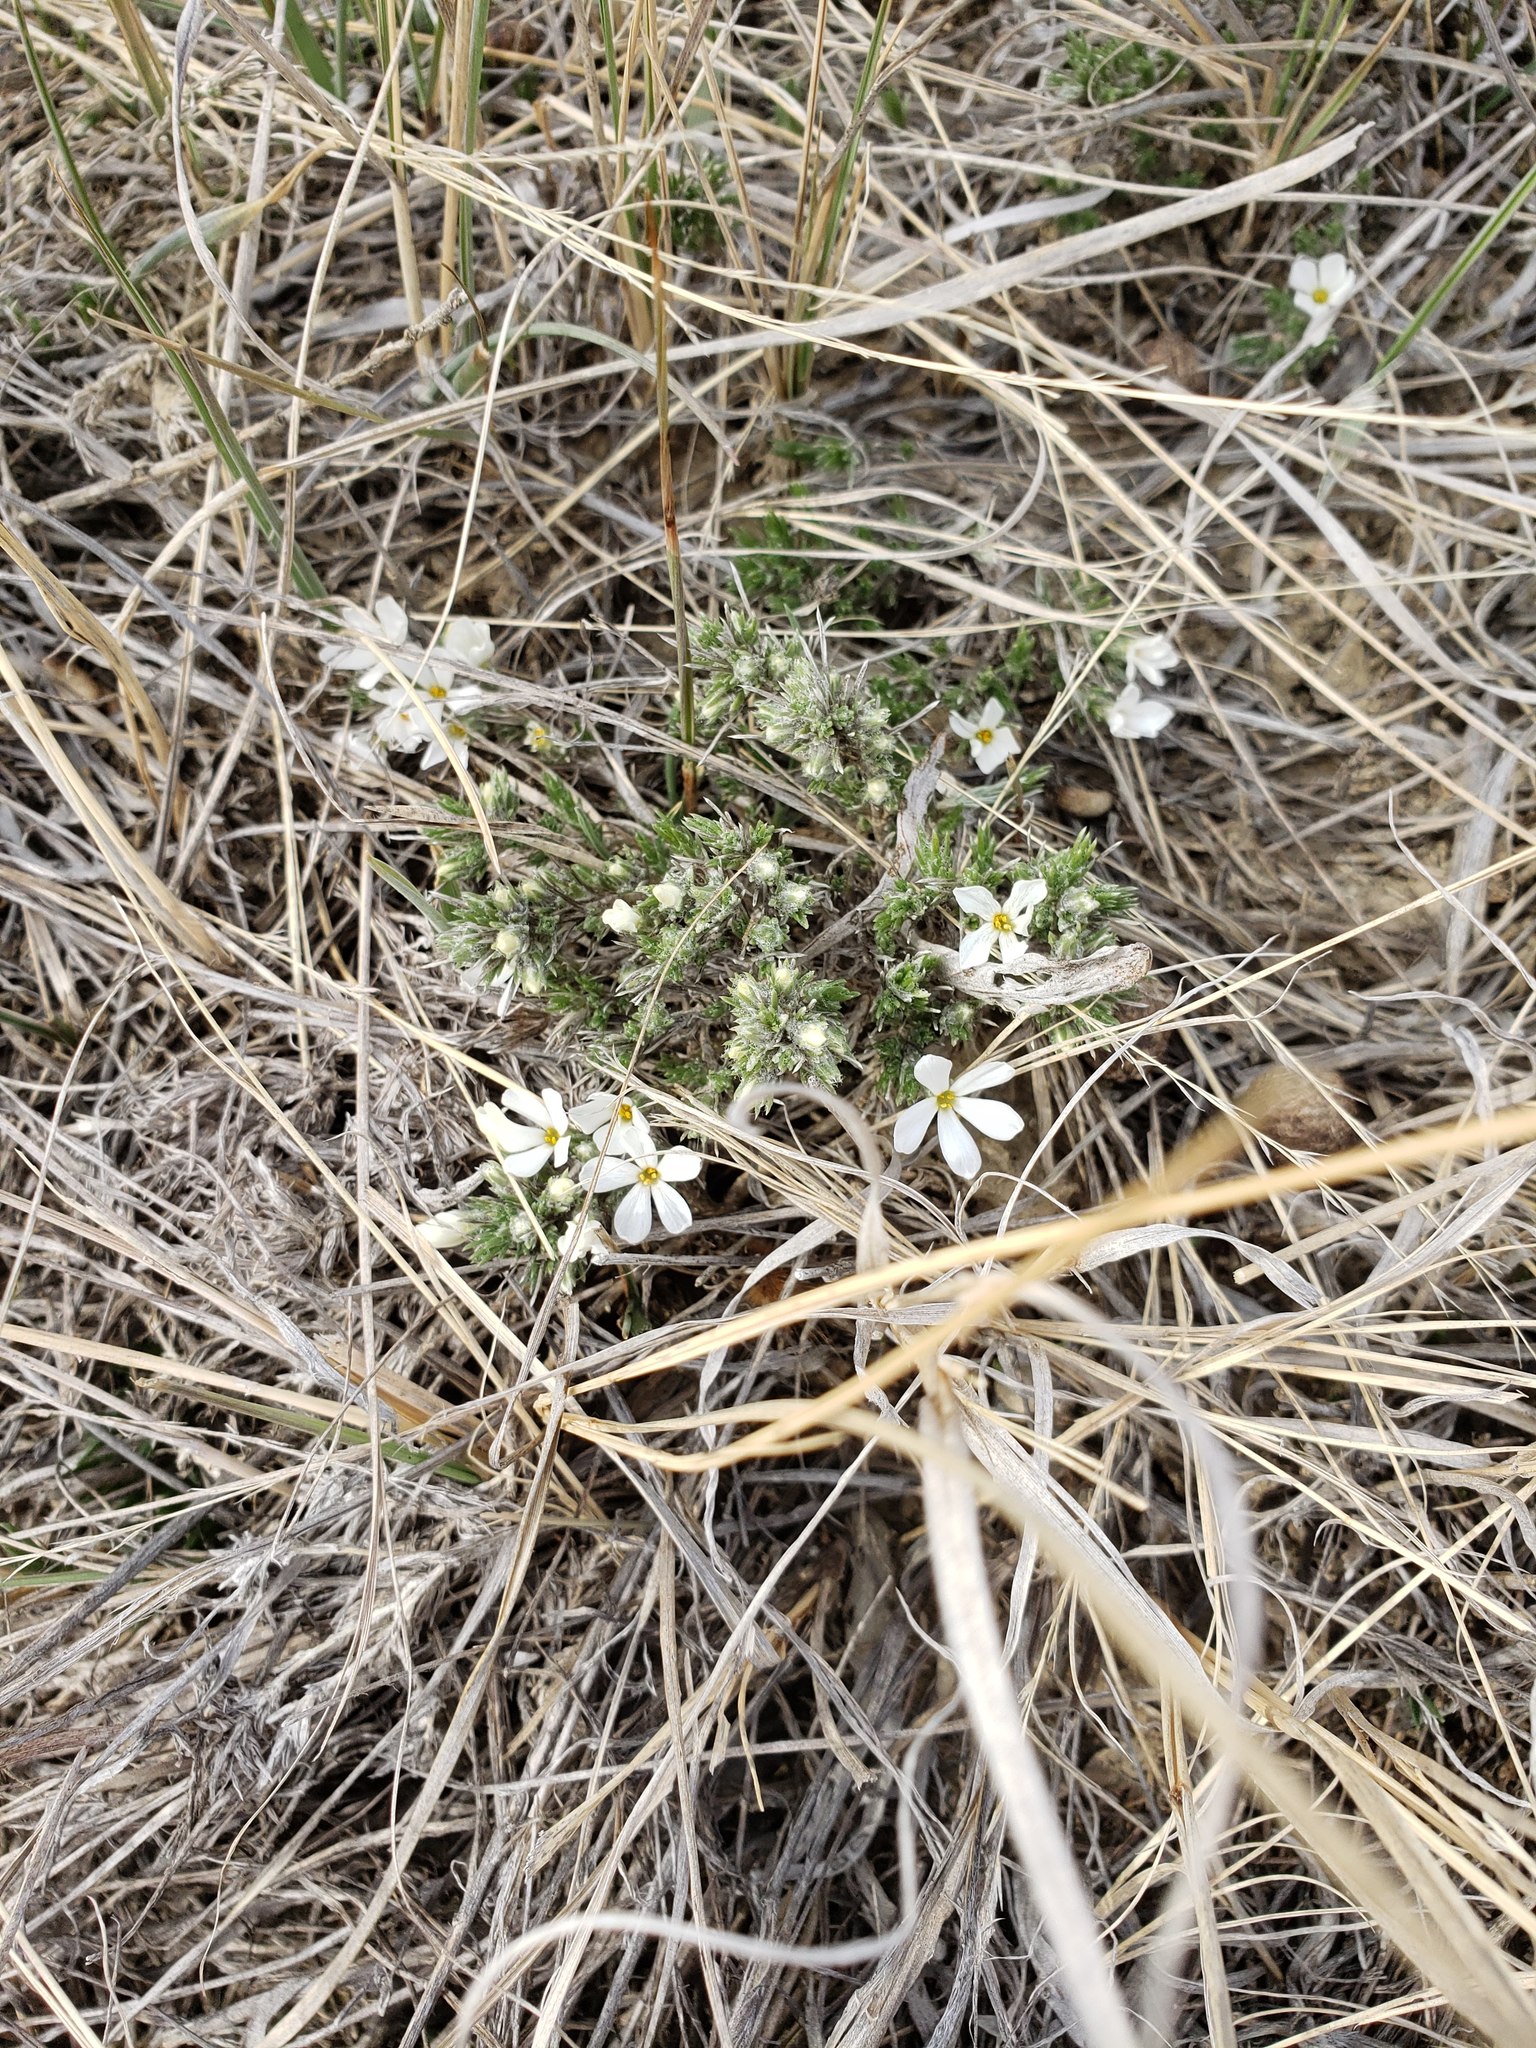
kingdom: Plantae
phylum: Tracheophyta
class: Magnoliopsida
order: Ericales
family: Polemoniaceae
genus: Phlox
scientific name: Phlox hoodii
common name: Moss phlox
